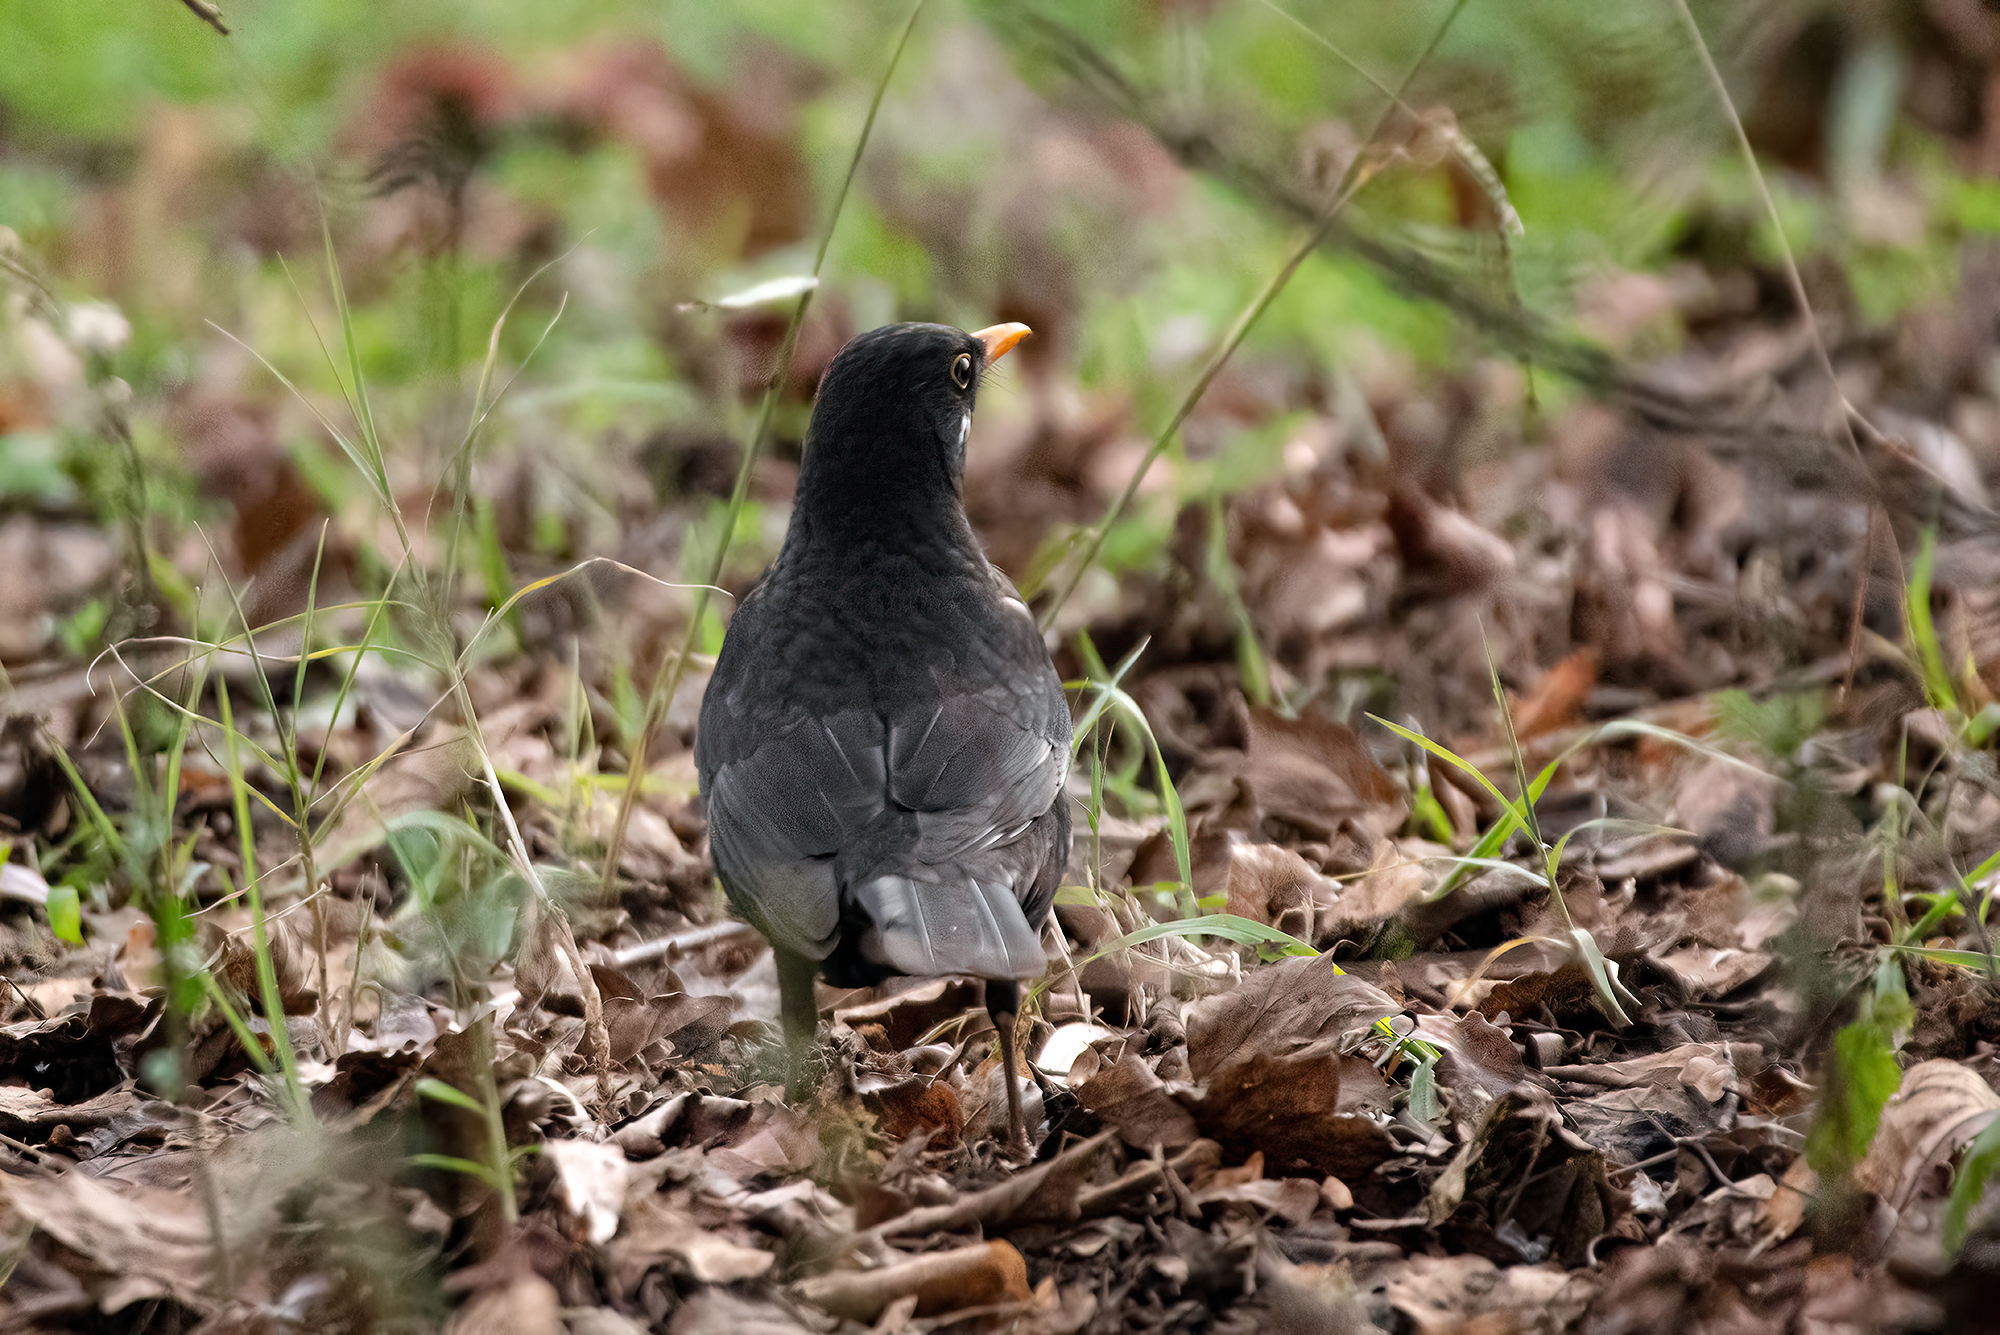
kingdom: Animalia
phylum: Chordata
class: Aves
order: Passeriformes
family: Turdidae
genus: Turdus
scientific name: Turdus merula
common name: Common blackbird
